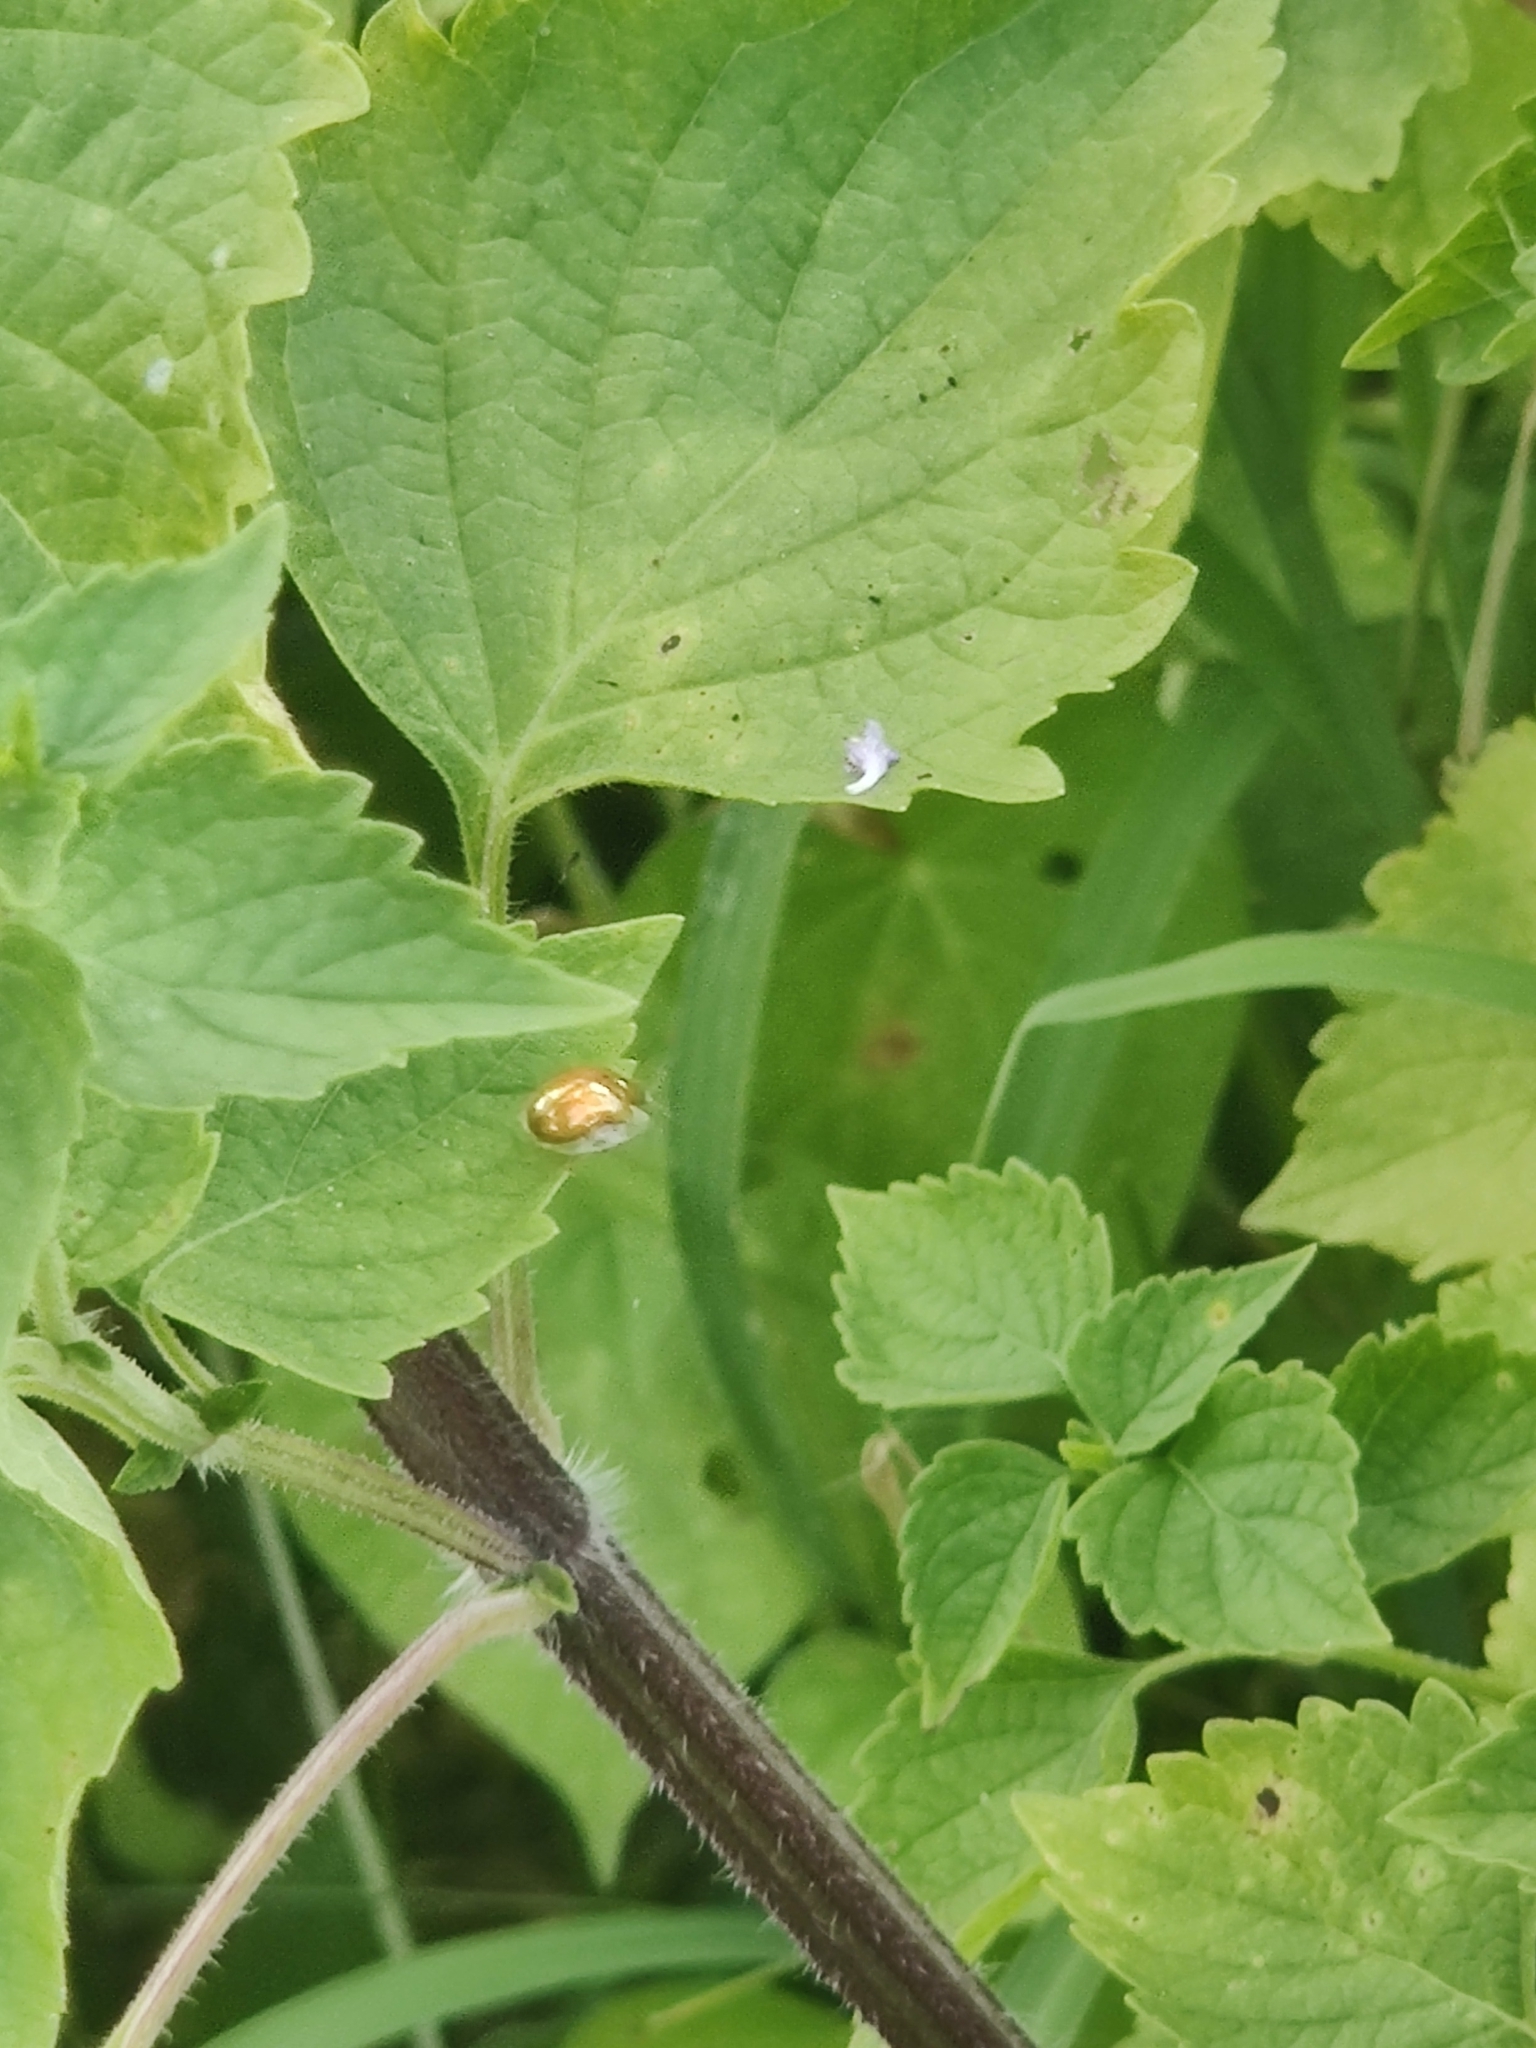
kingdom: Animalia
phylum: Arthropoda
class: Insecta
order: Coleoptera
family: Chrysomelidae
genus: Charidotella
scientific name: Charidotella sexpunctata
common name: Golden tortoise beetle
